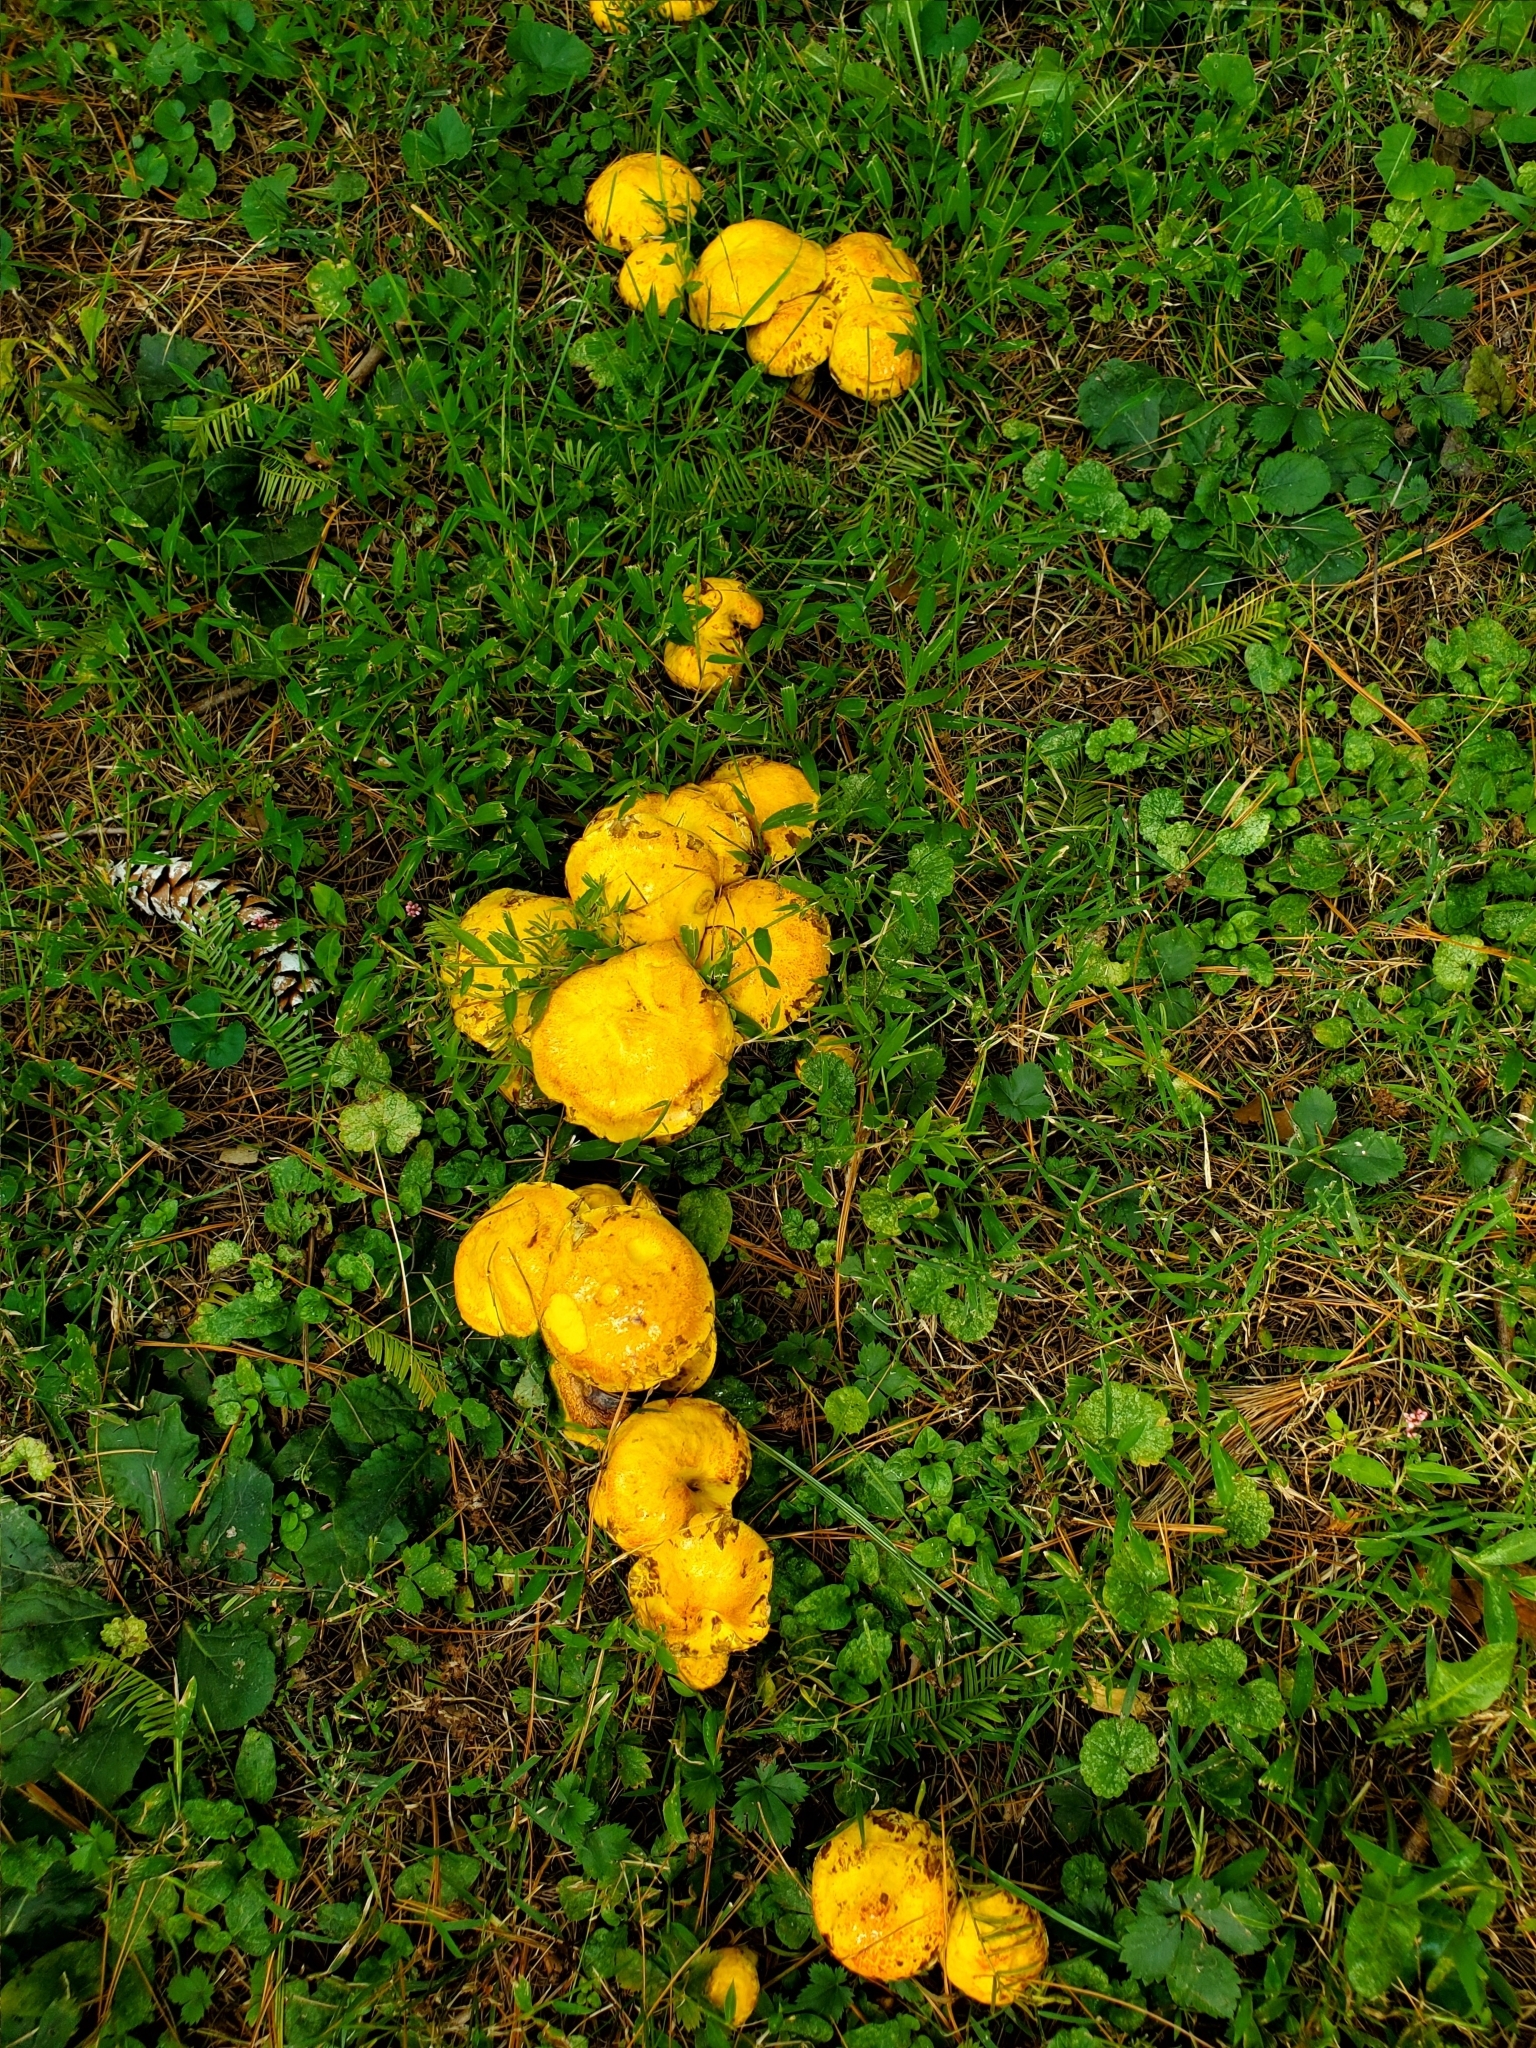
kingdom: Fungi
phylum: Basidiomycota
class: Agaricomycetes
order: Boletales
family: Suillaceae
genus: Suillus
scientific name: Suillus americanus
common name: Chicken fat mushroom
